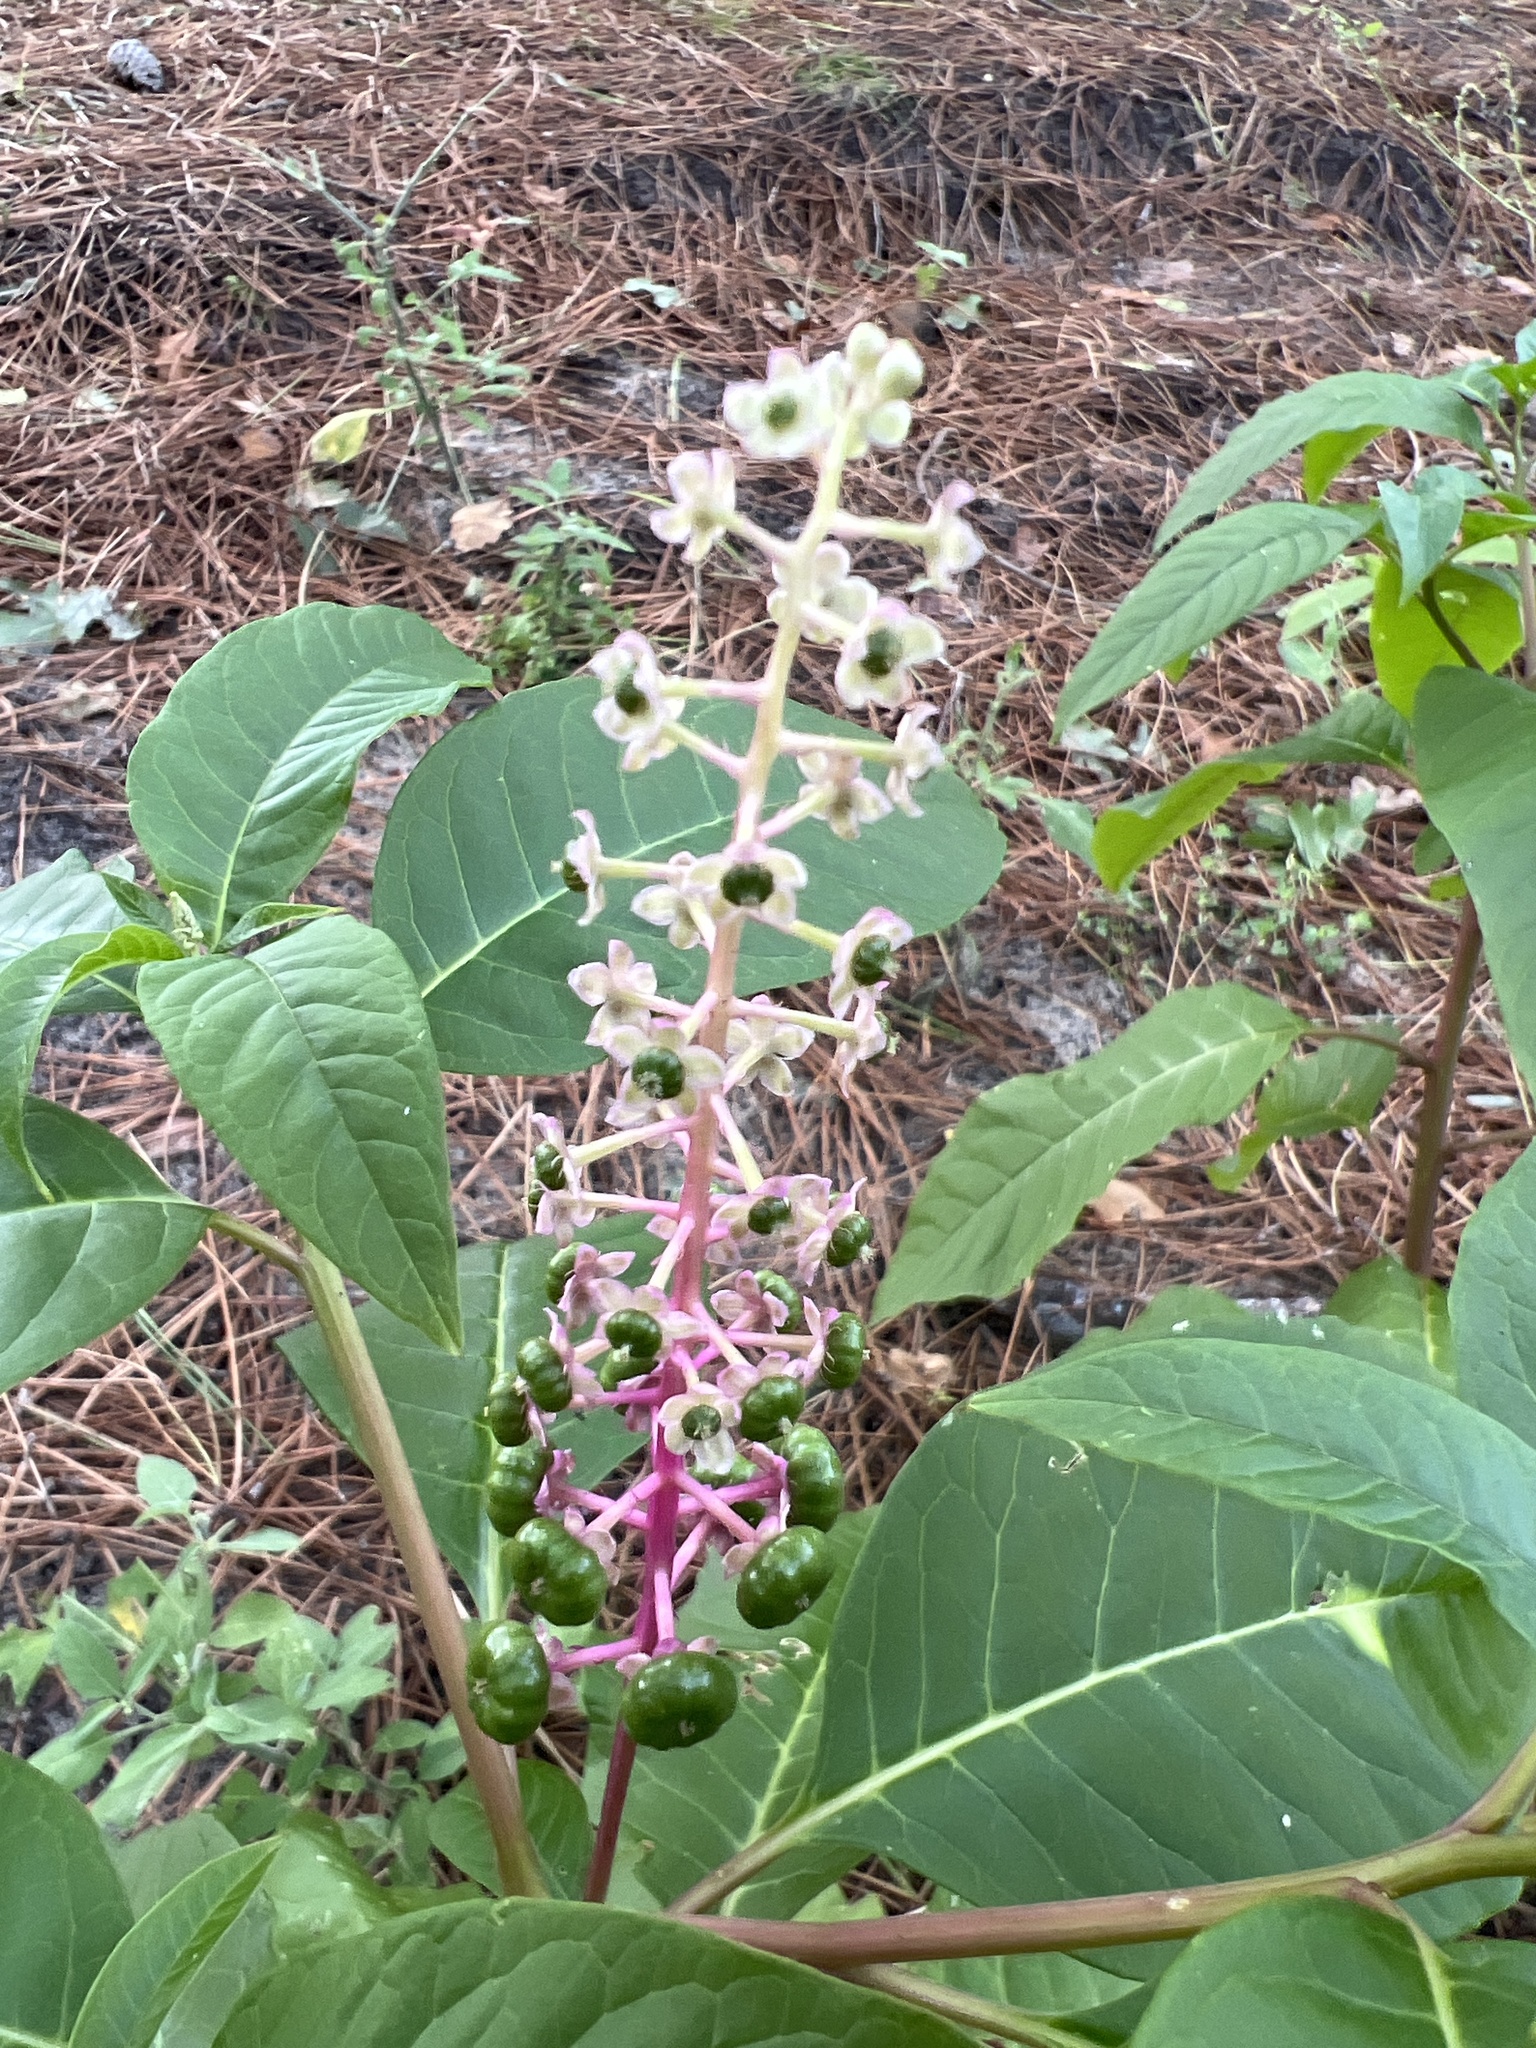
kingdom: Plantae
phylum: Tracheophyta
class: Magnoliopsida
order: Caryophyllales
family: Phytolaccaceae
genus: Phytolacca
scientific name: Phytolacca americana
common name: American pokeweed
